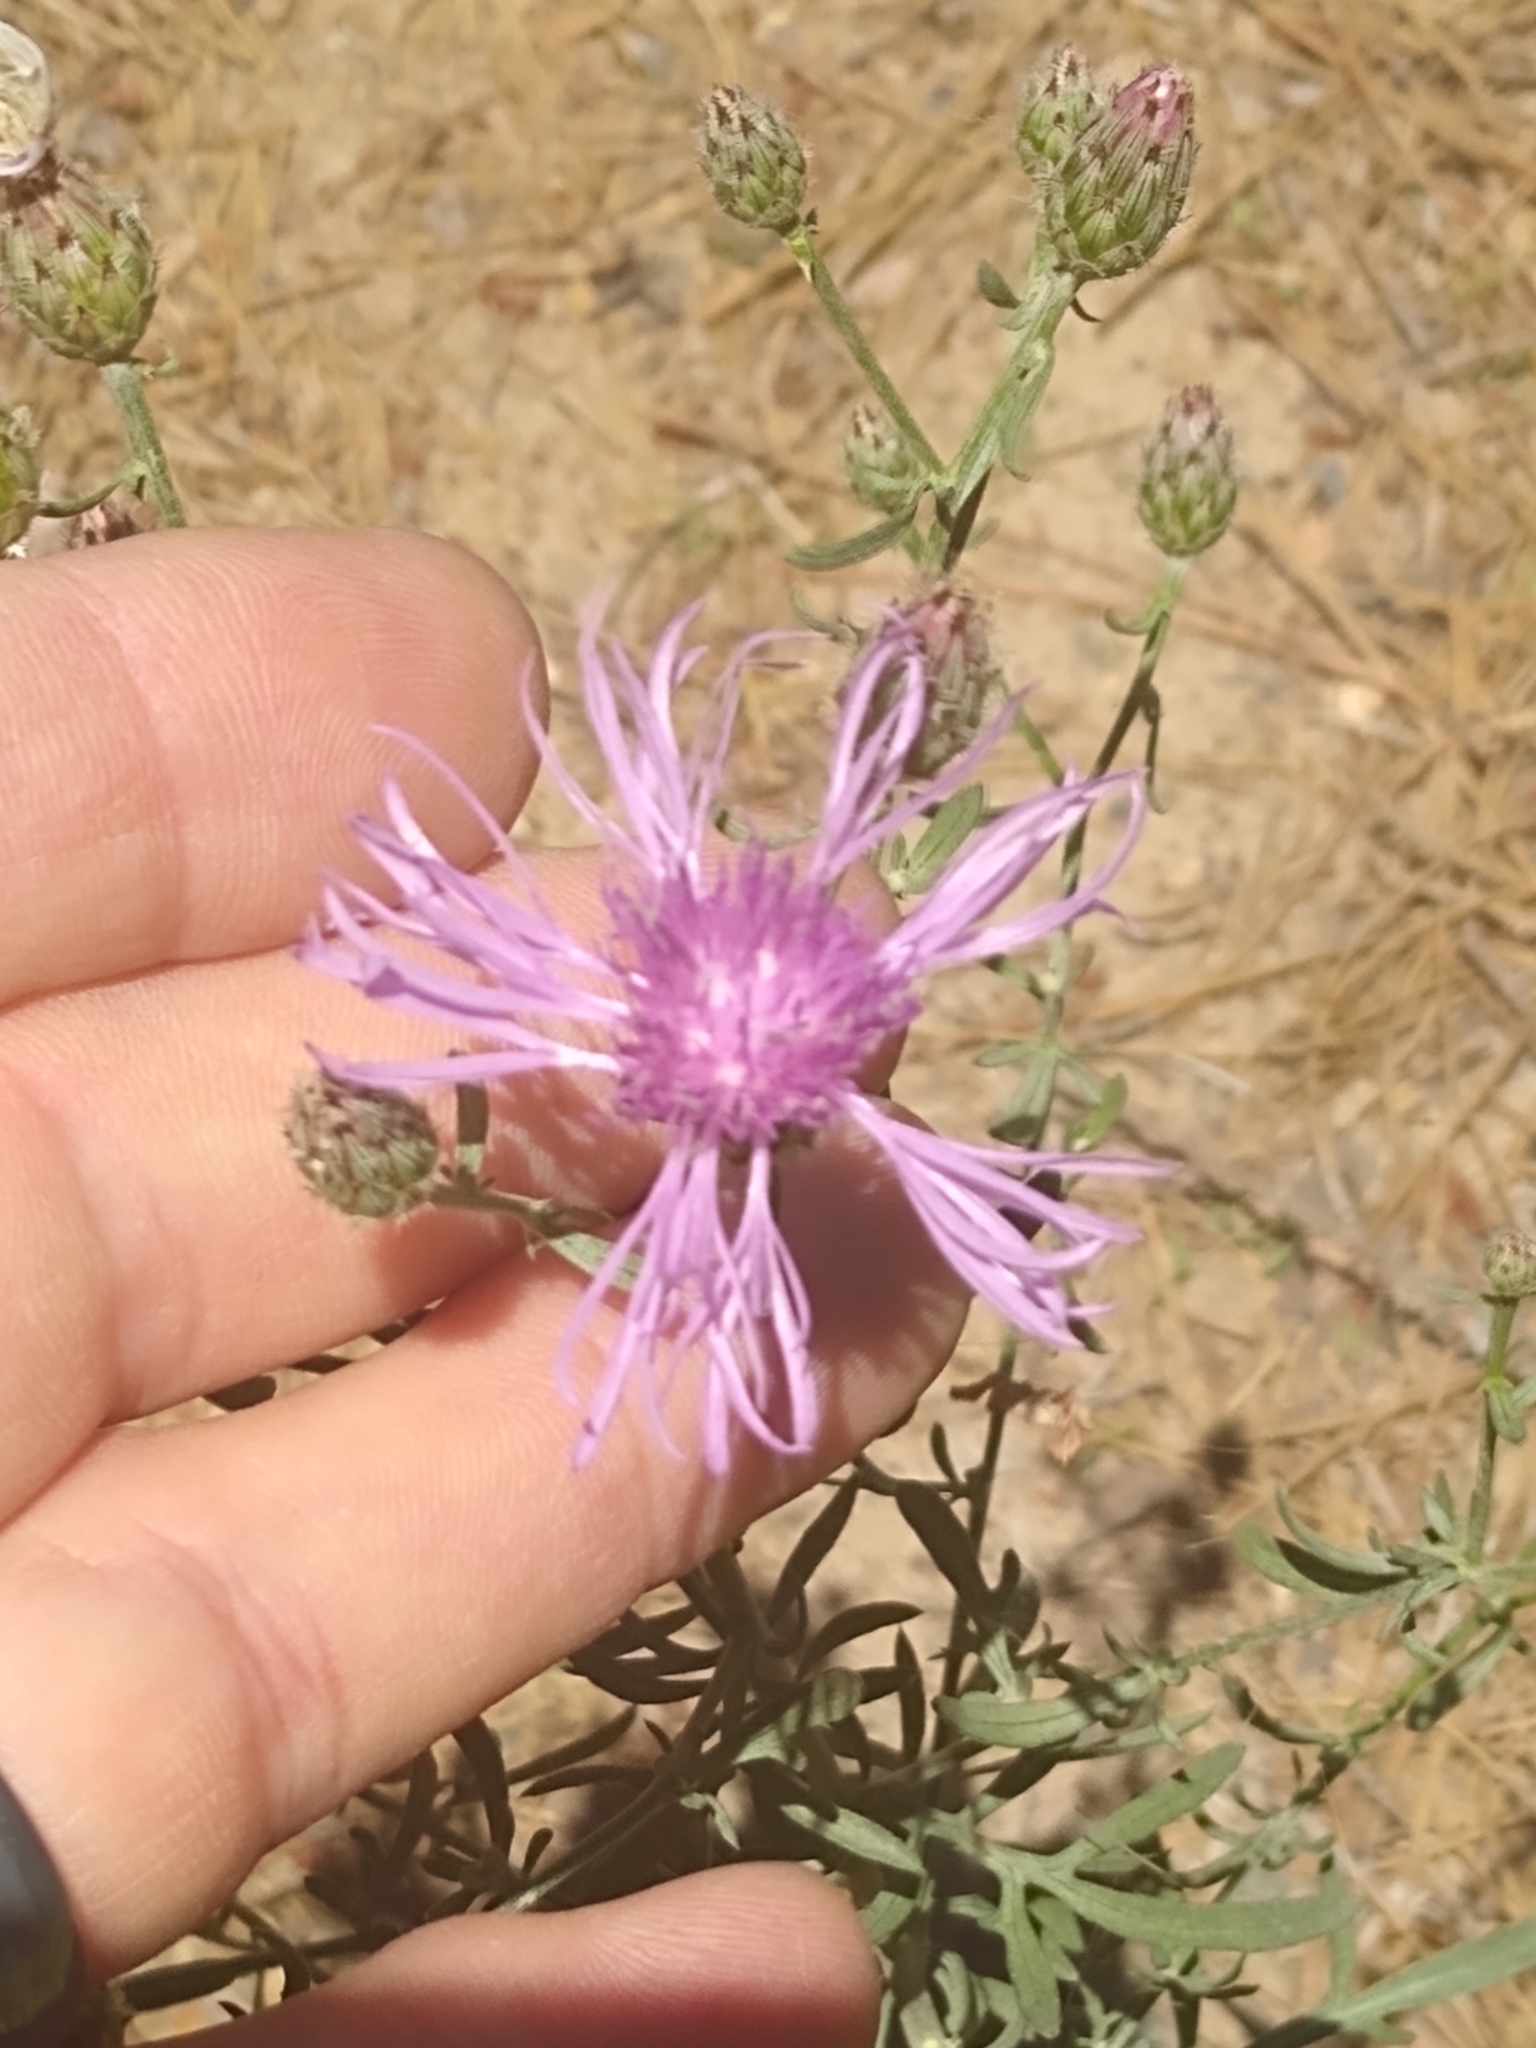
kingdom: Plantae
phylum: Tracheophyta
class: Magnoliopsida
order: Asterales
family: Asteraceae
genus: Centaurea
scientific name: Centaurea stoebe
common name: Spotted knapweed
